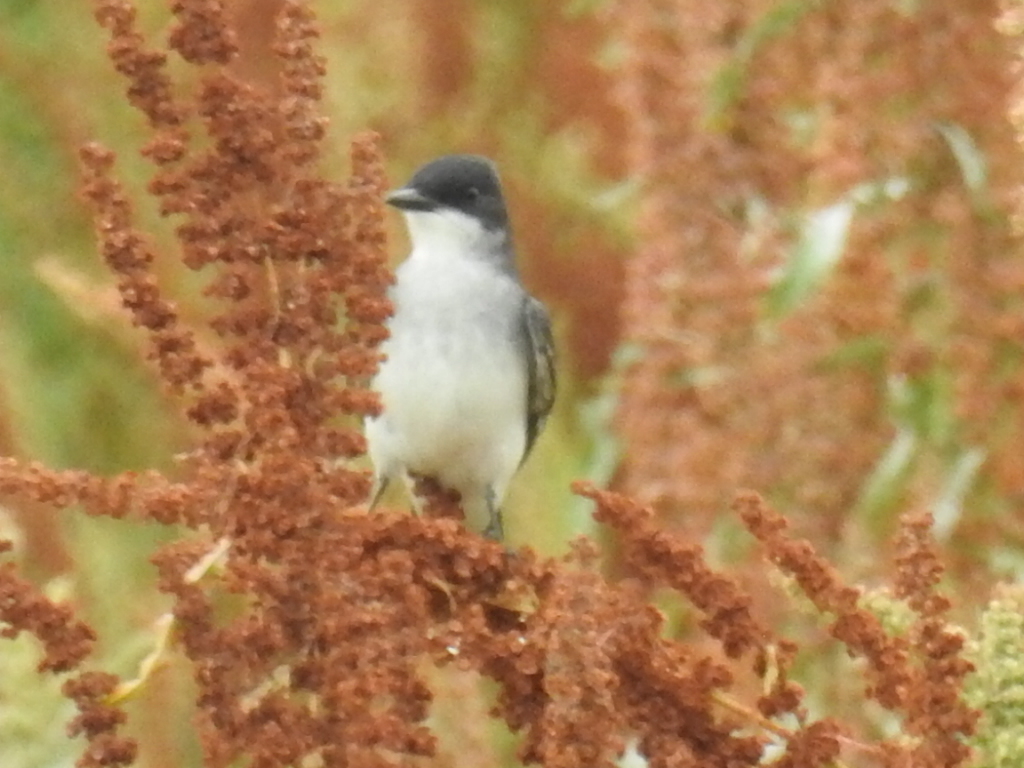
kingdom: Animalia
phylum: Chordata
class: Aves
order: Passeriformes
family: Tyrannidae
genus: Tyrannus
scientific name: Tyrannus tyrannus
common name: Eastern kingbird
